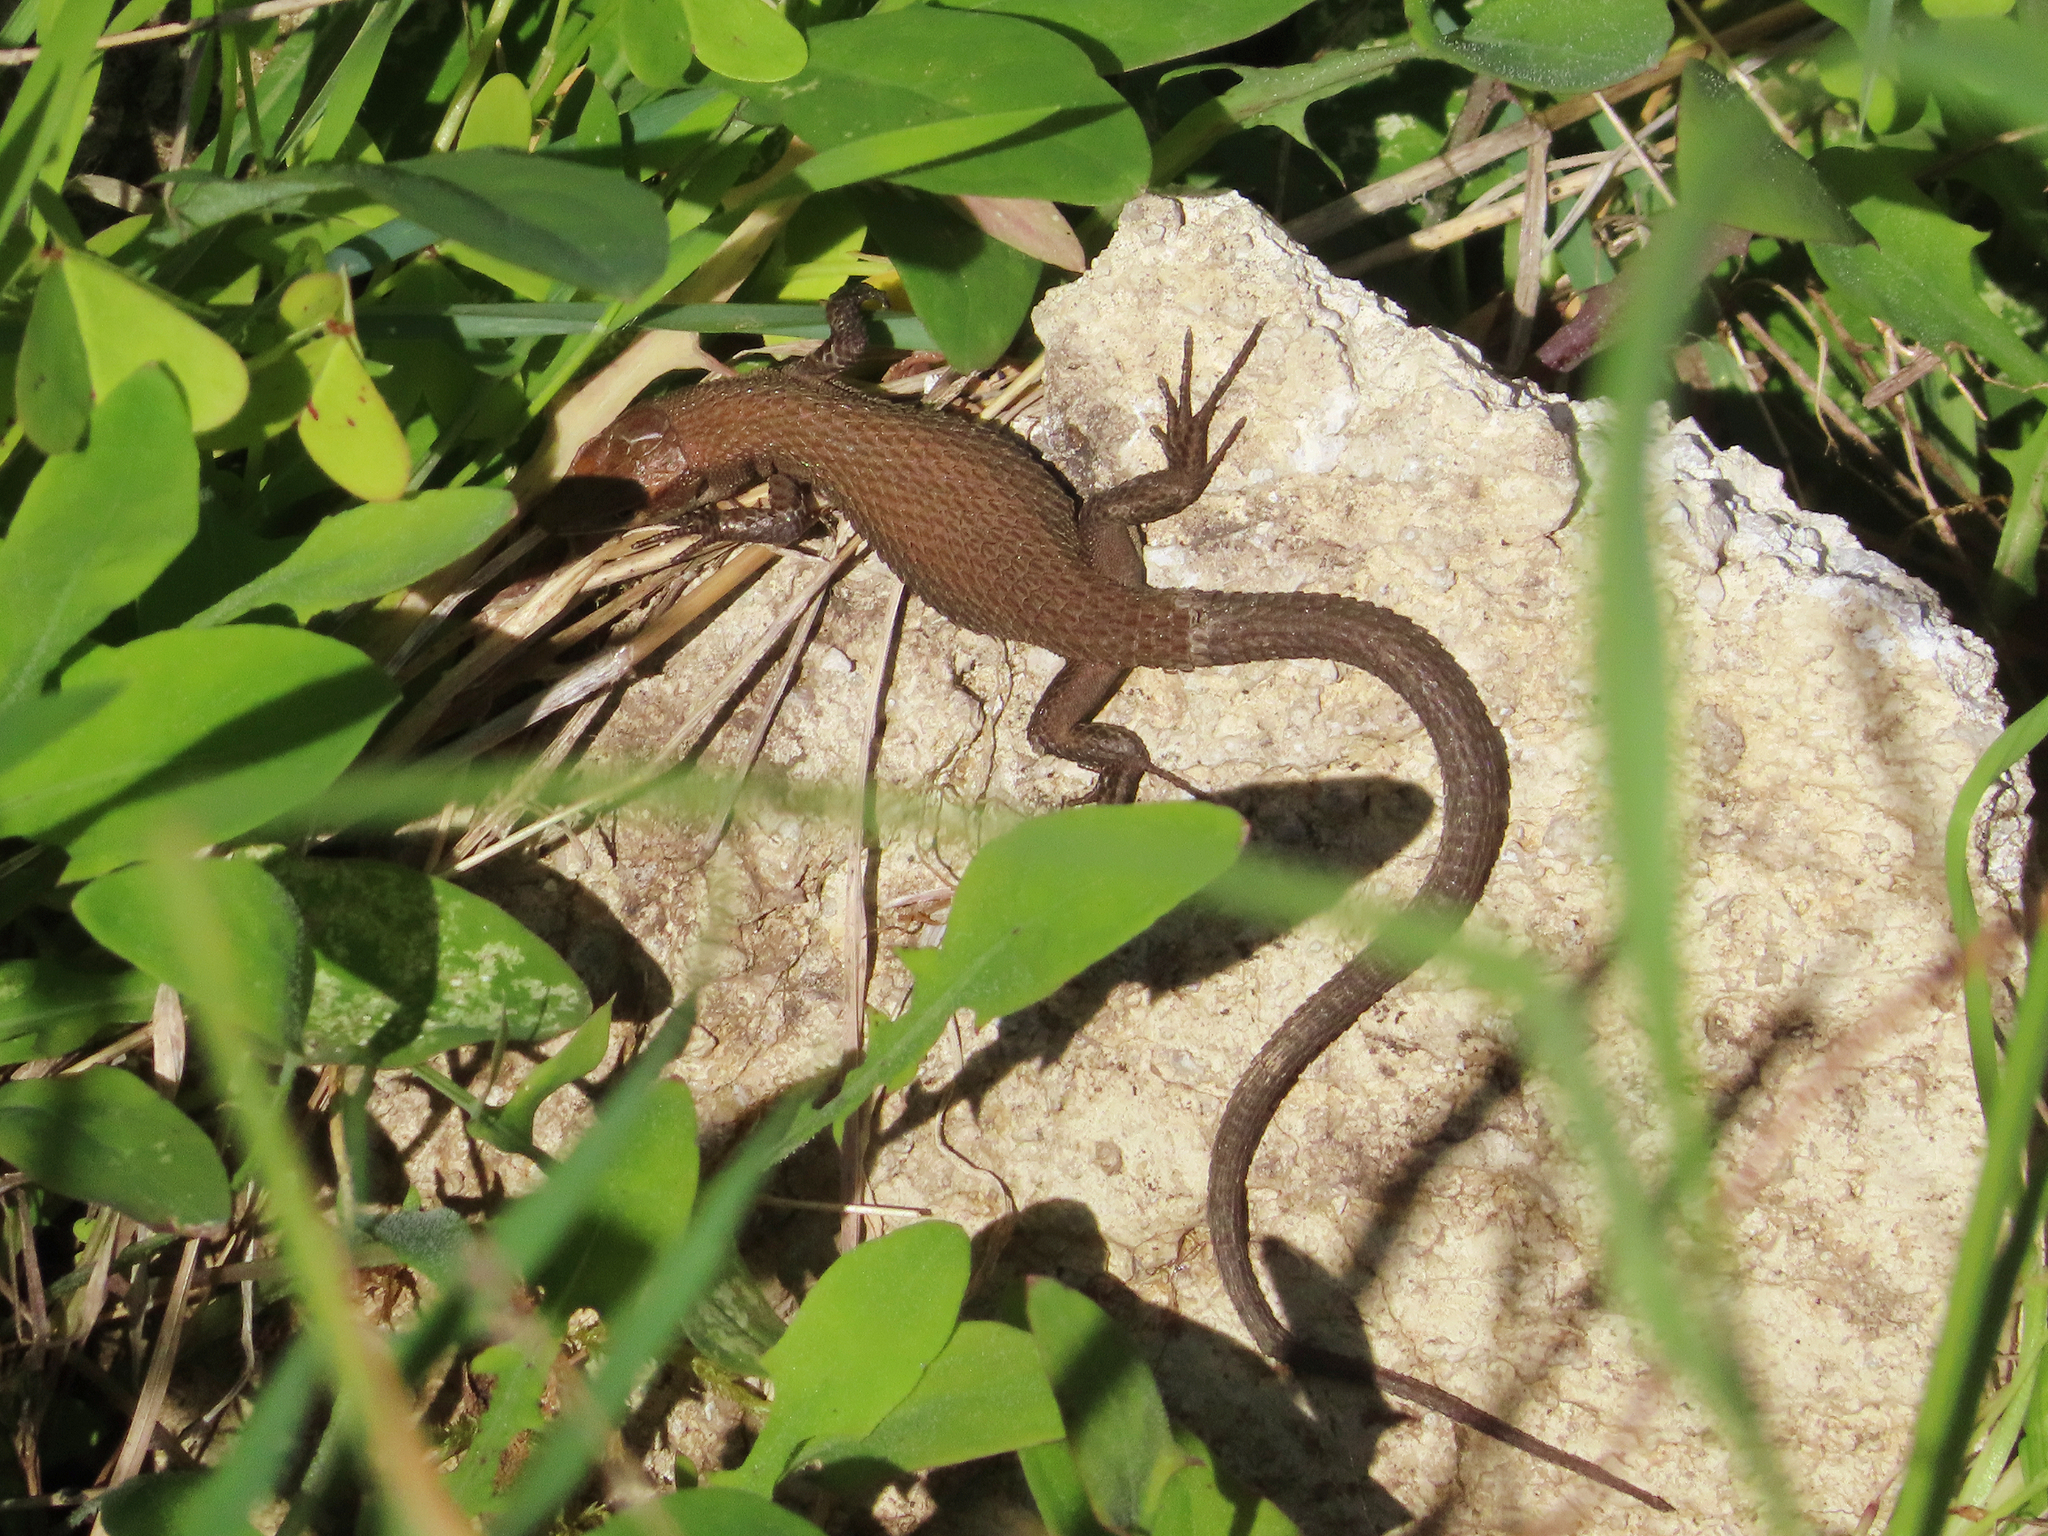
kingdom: Animalia
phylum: Chordata
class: Squamata
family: Lacertidae
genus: Algyroides
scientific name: Algyroides moreoticus
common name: Greek algyroides
